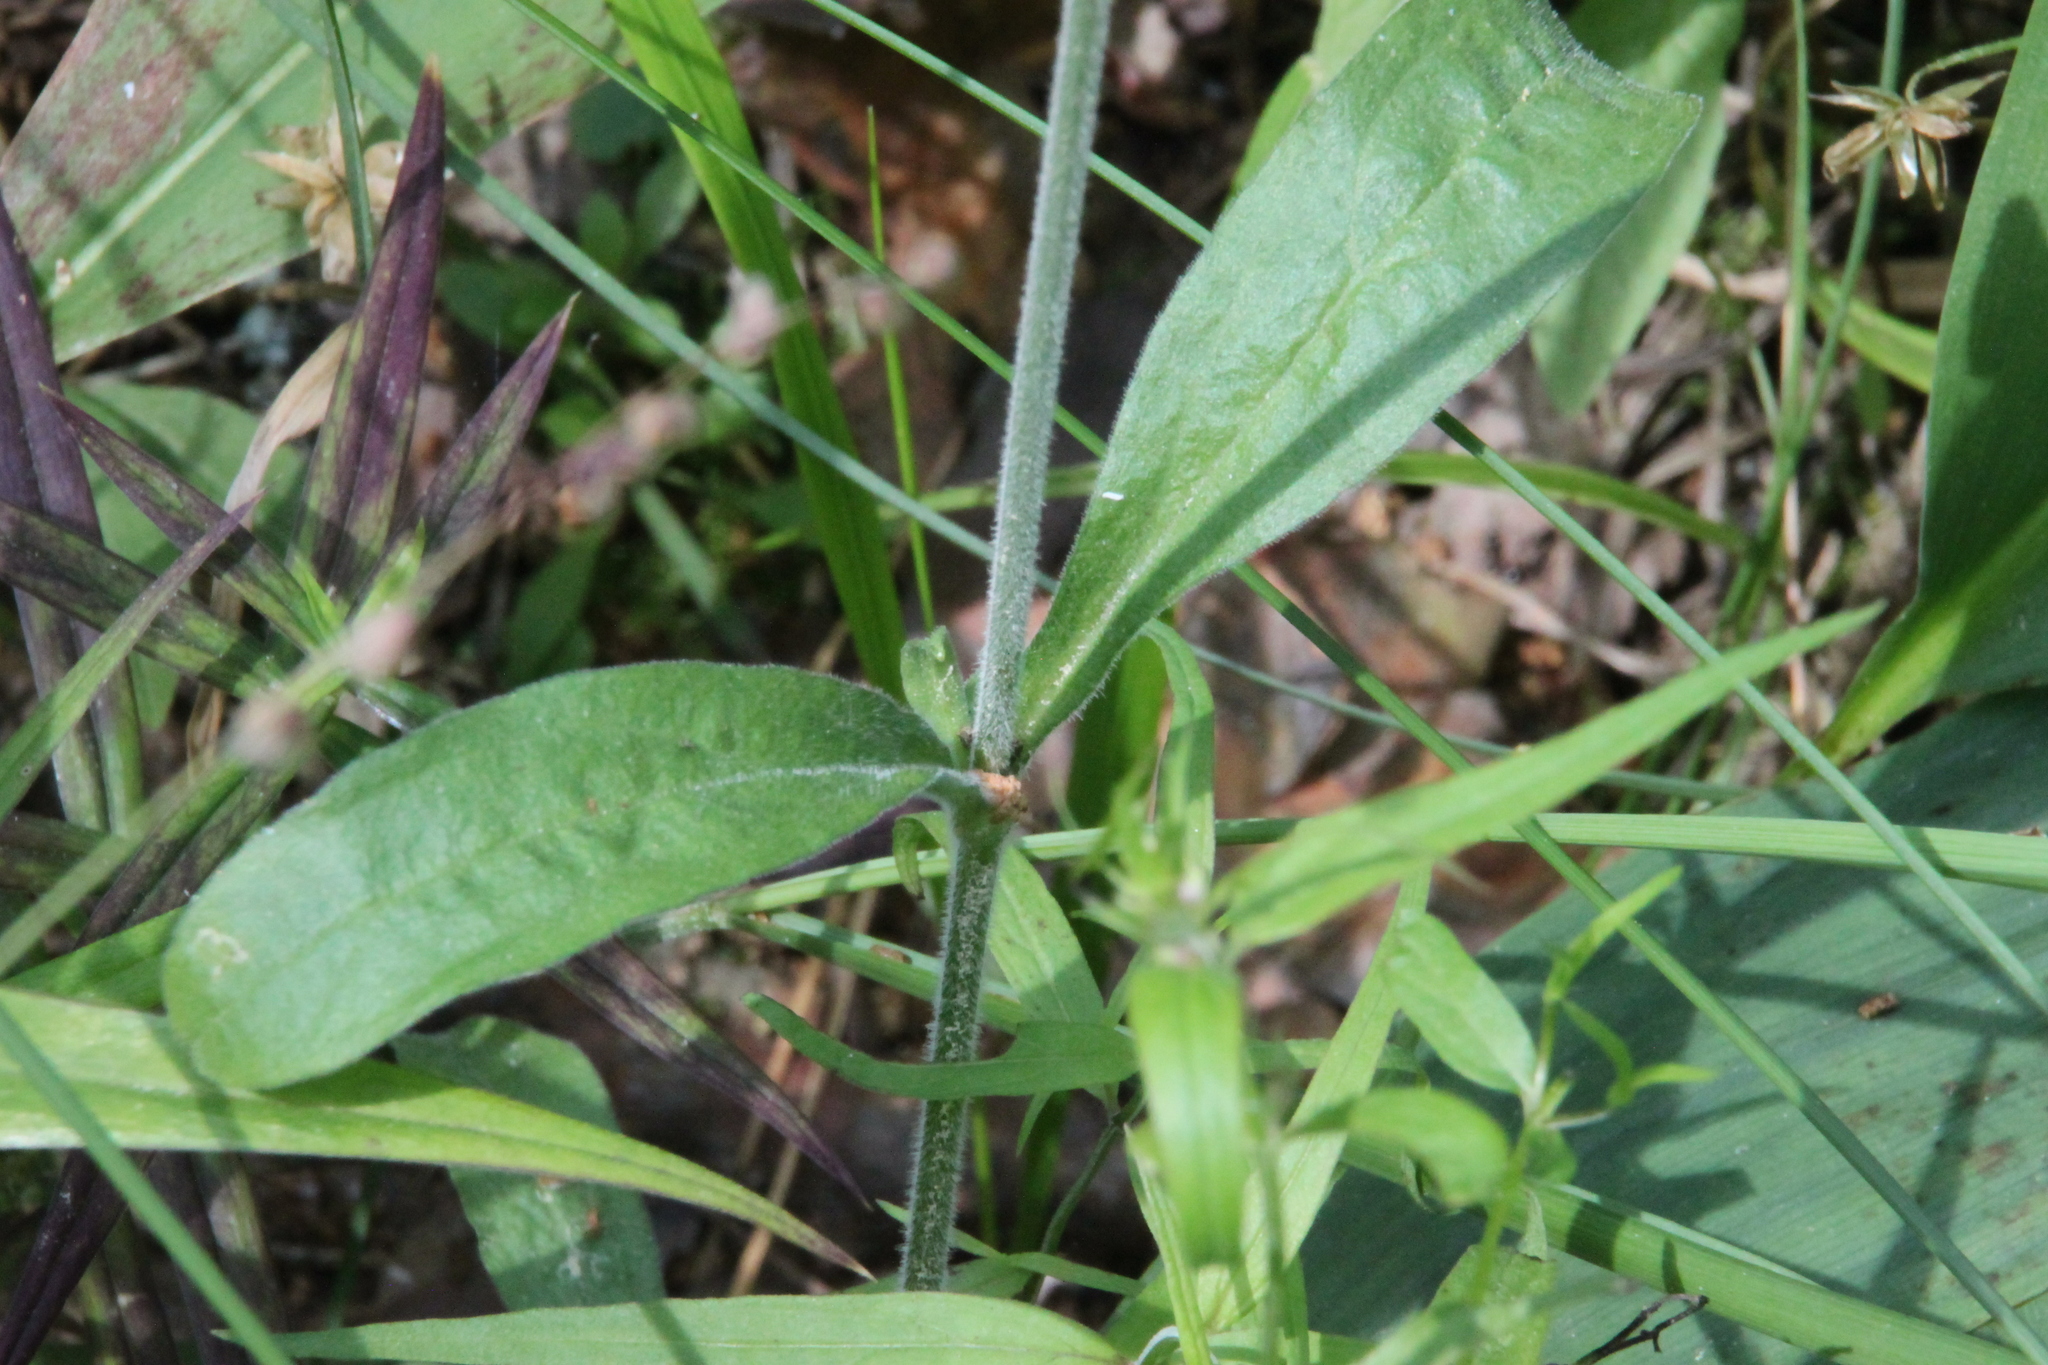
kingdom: Plantae
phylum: Tracheophyta
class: Magnoliopsida
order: Caryophyllales
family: Caryophyllaceae
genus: Silene
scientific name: Silene nutans
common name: Nottingham catchfly
